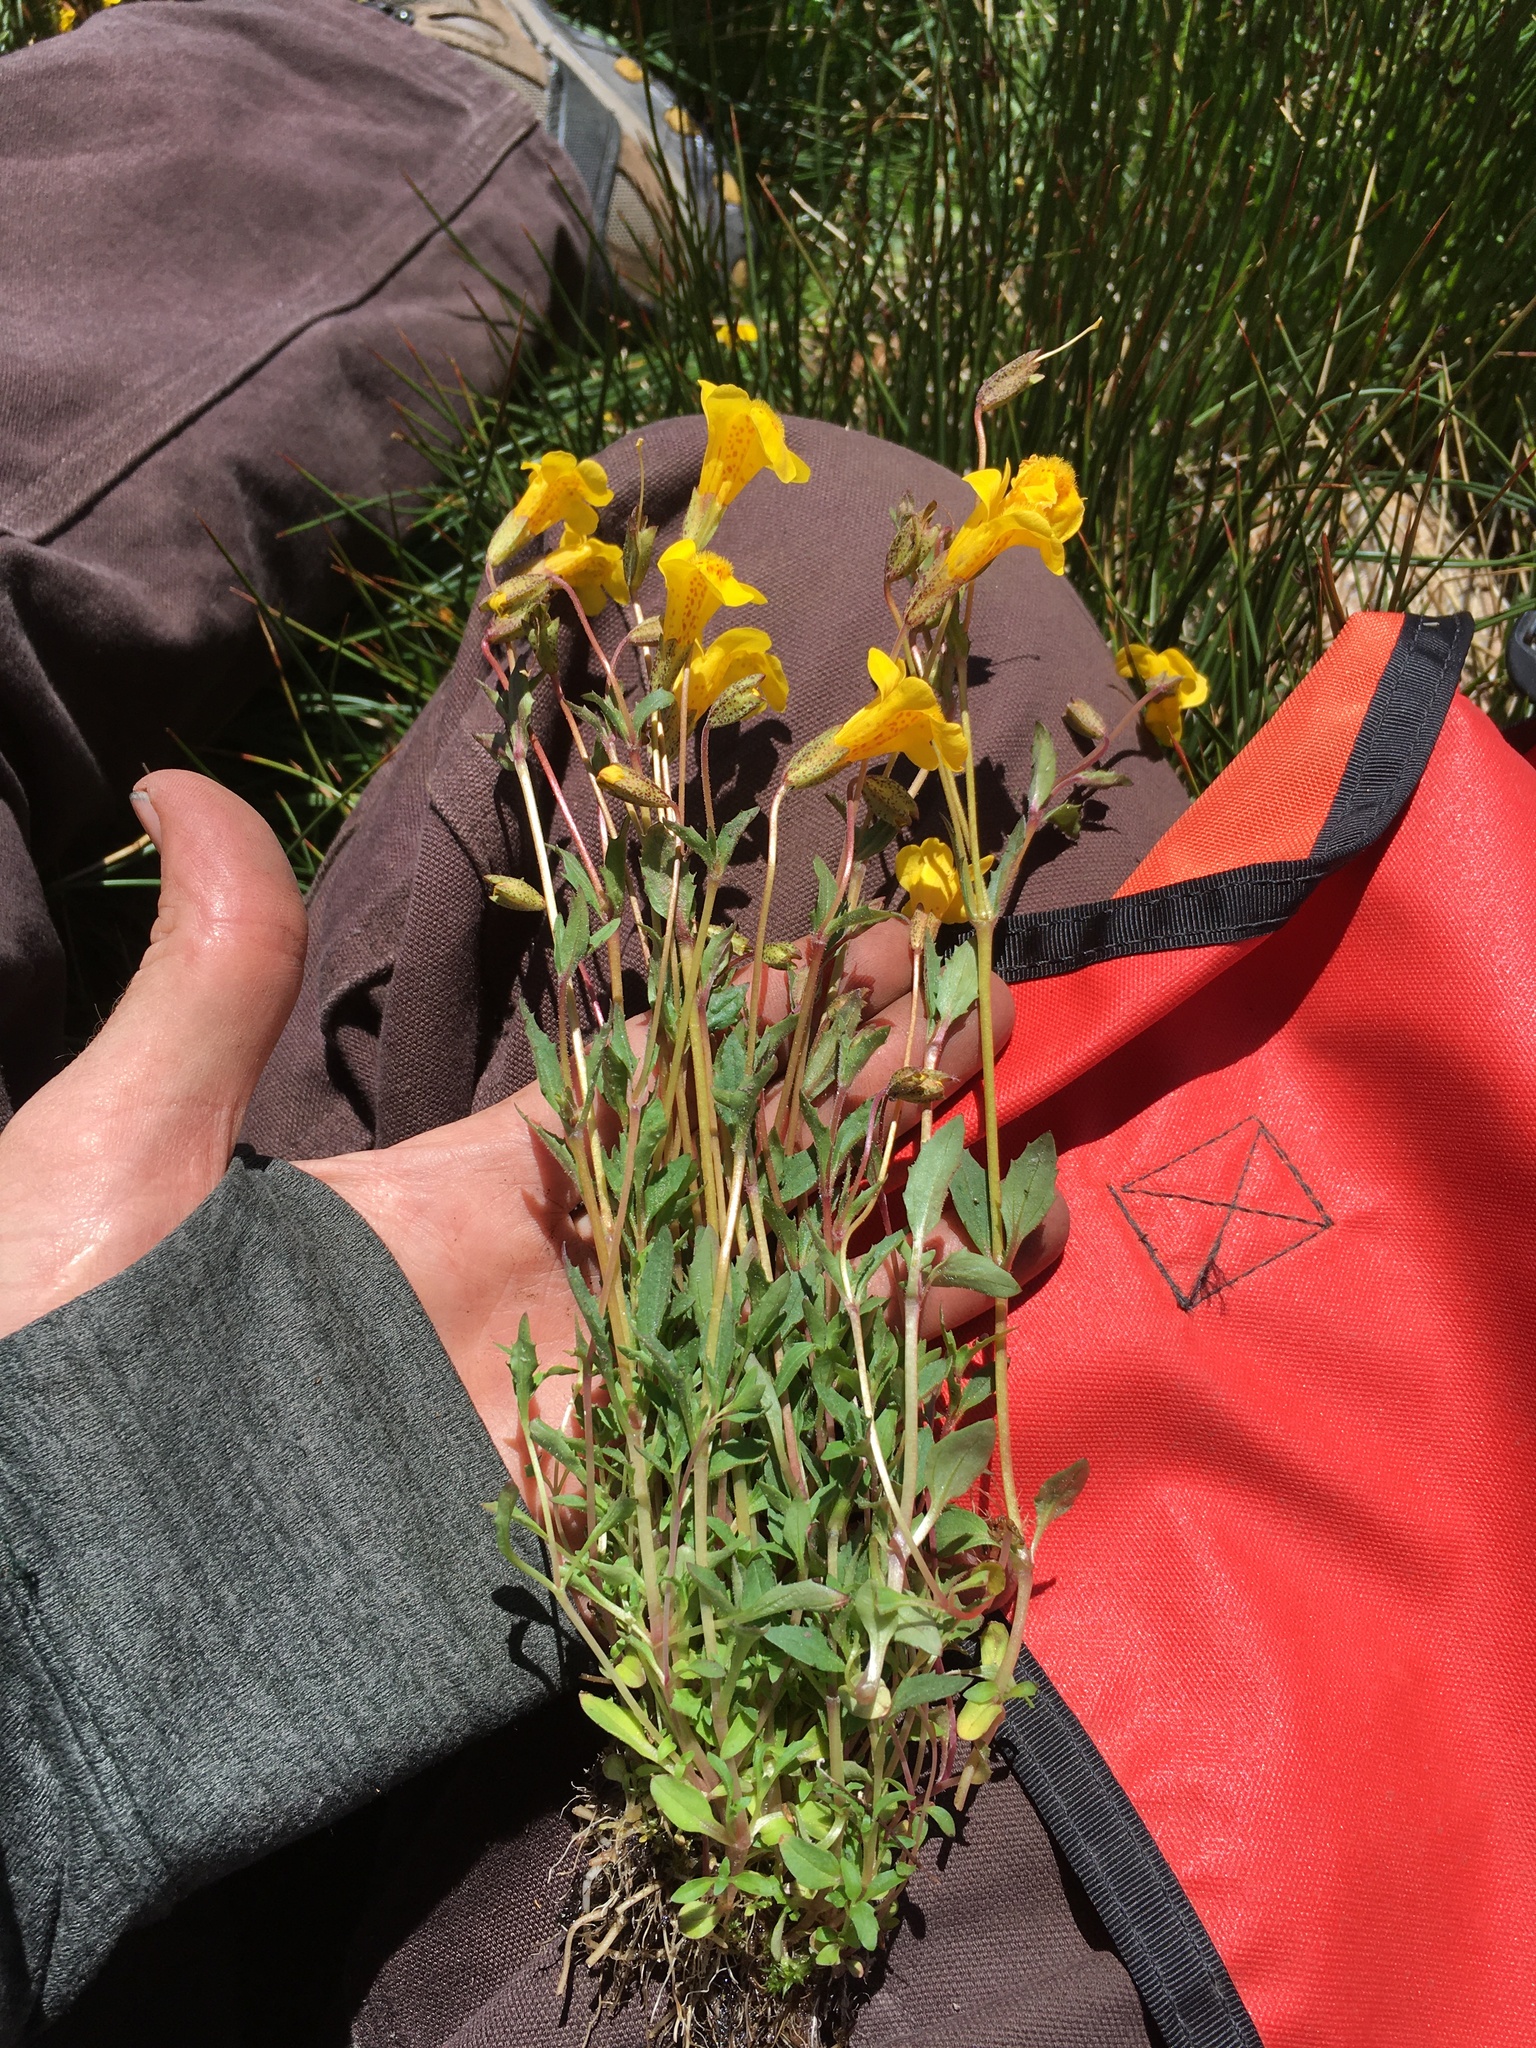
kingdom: Plantae
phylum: Tracheophyta
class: Magnoliopsida
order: Lamiales
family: Phrymaceae
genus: Erythranthe
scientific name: Erythranthe tilingii
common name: Subalpine monkey-flower
